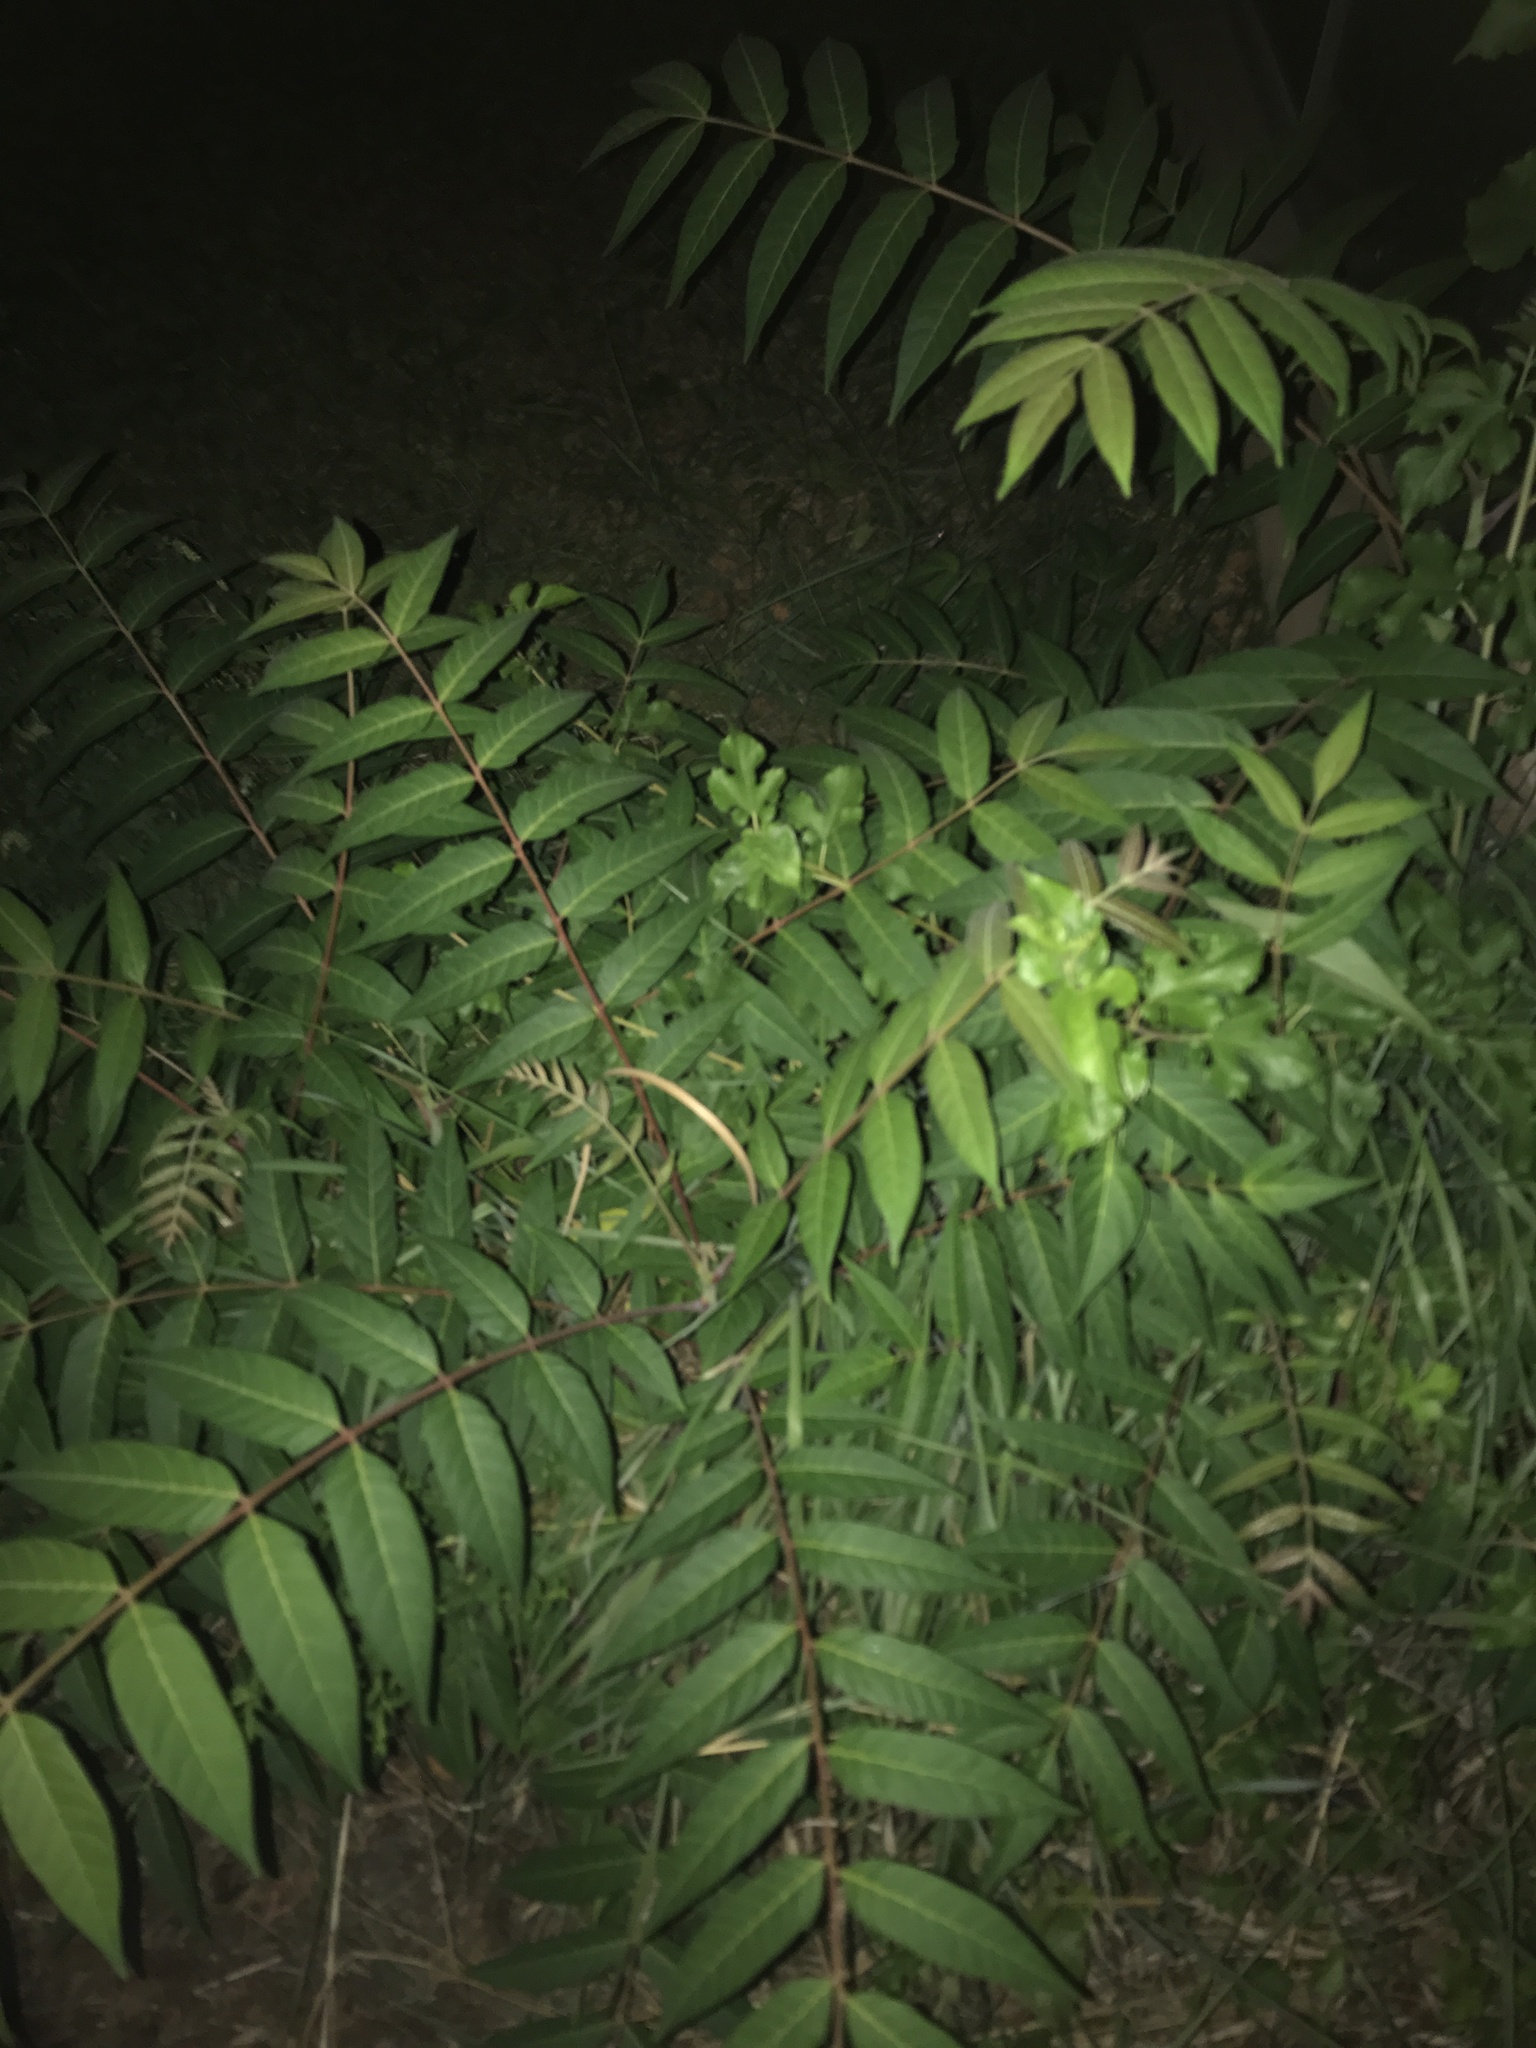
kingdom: Plantae
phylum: Tracheophyta
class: Magnoliopsida
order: Sapindales
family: Simaroubaceae
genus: Ailanthus
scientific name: Ailanthus altissima
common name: Tree-of-heaven
